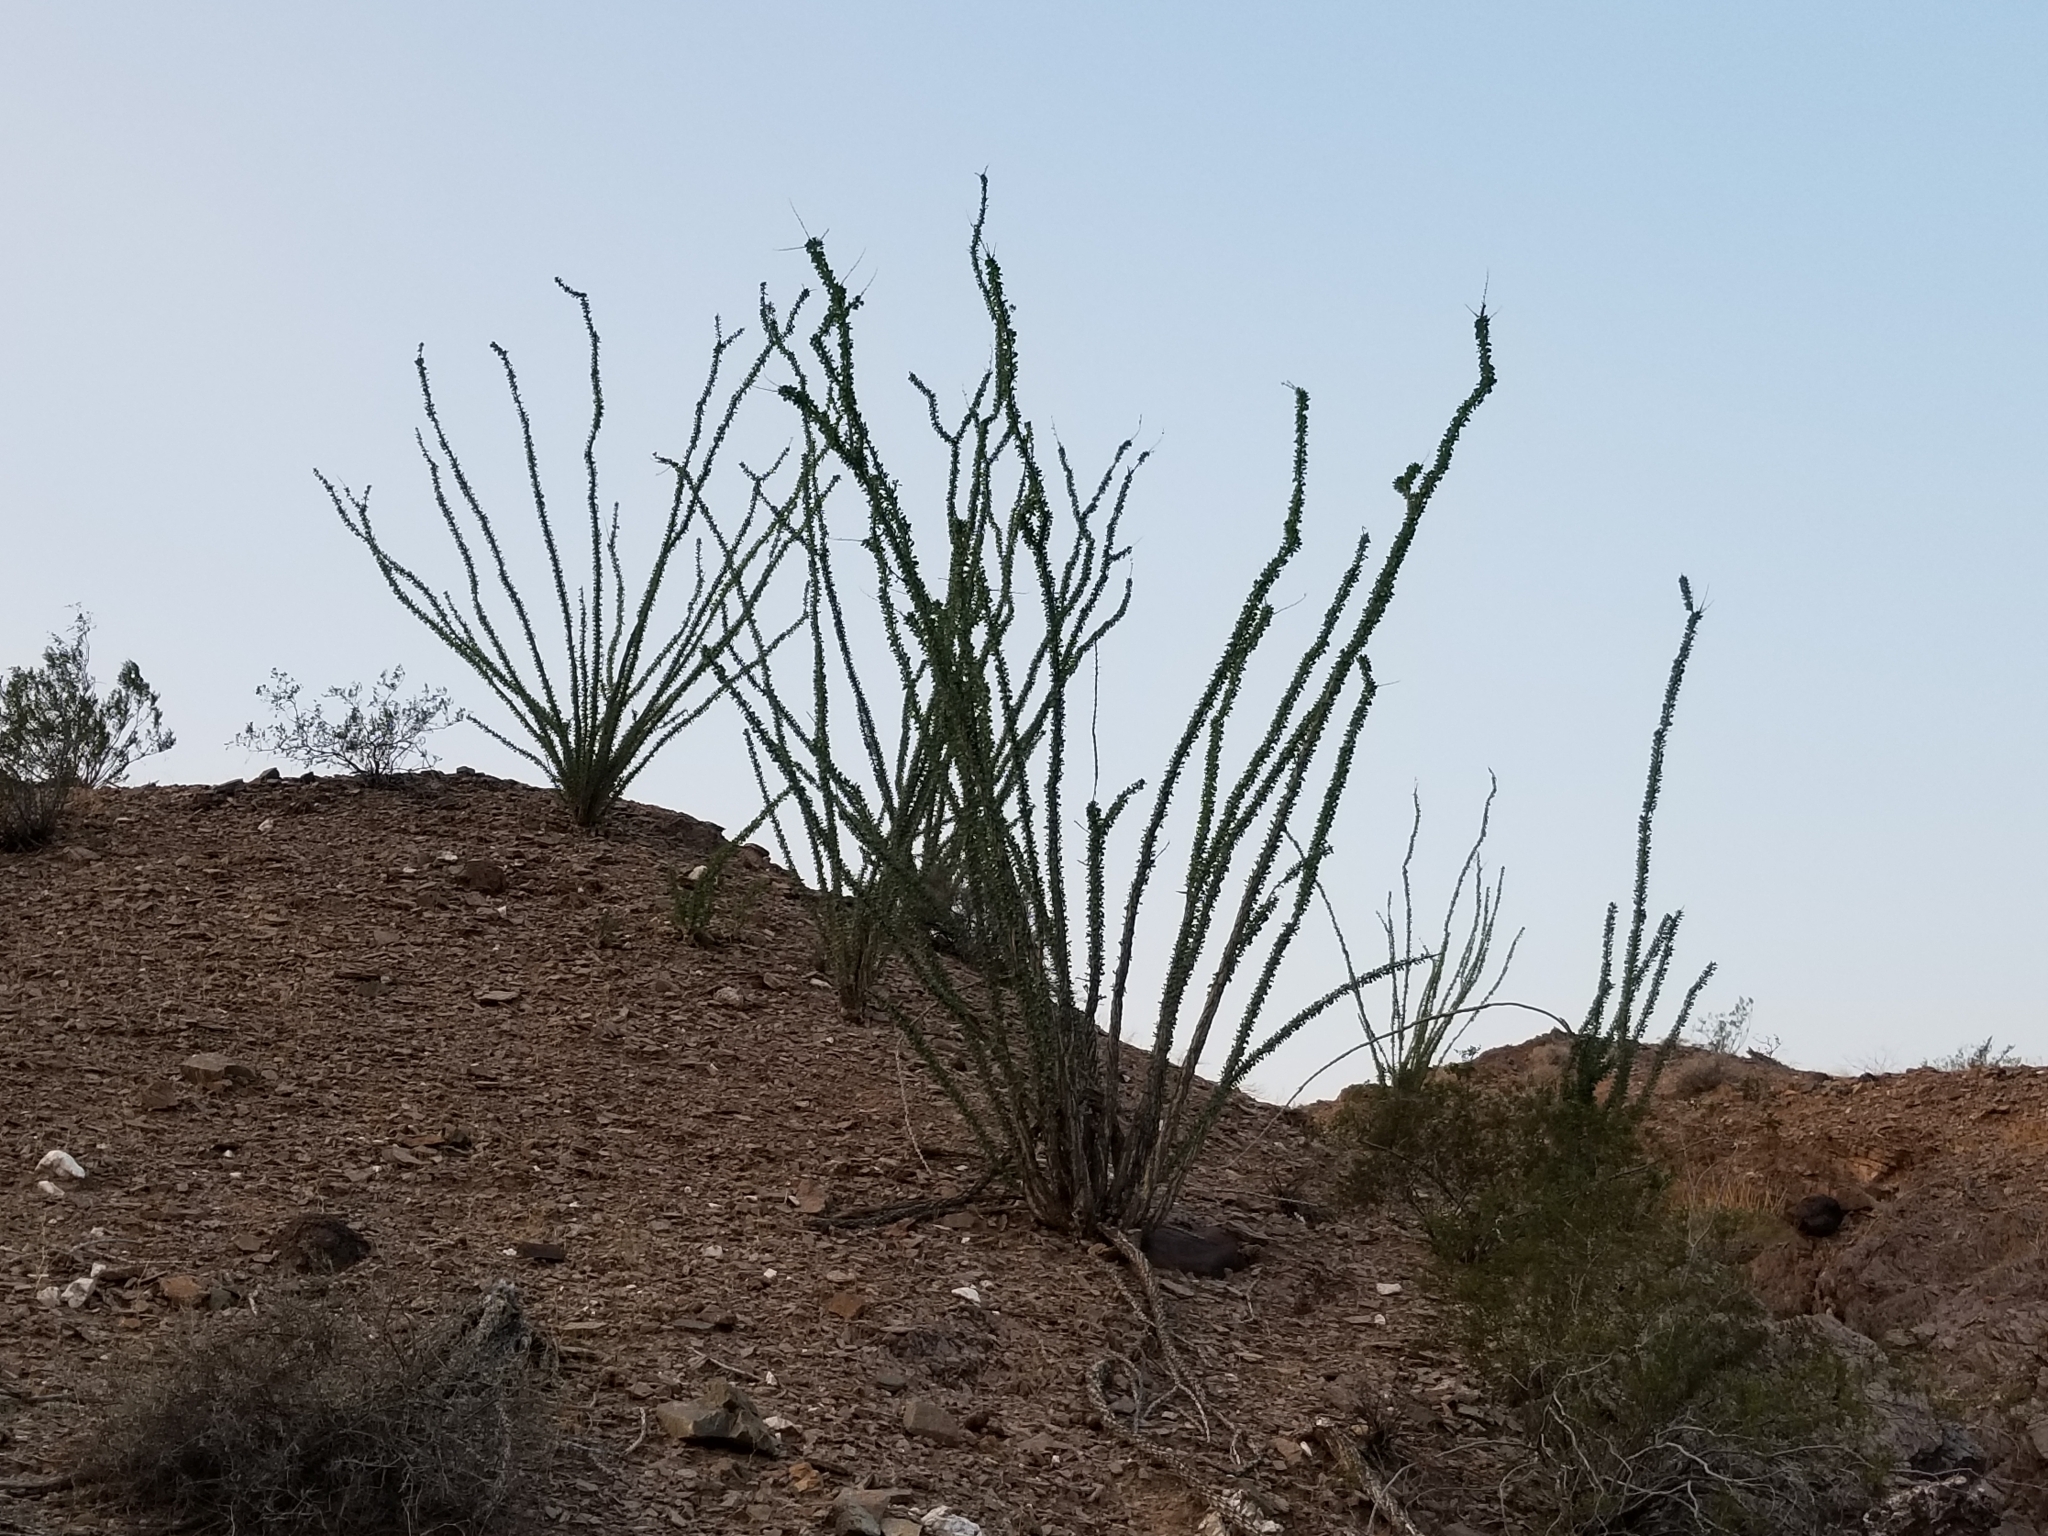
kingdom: Plantae
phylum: Tracheophyta
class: Magnoliopsida
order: Ericales
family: Fouquieriaceae
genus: Fouquieria
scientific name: Fouquieria splendens
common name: Vine-cactus
